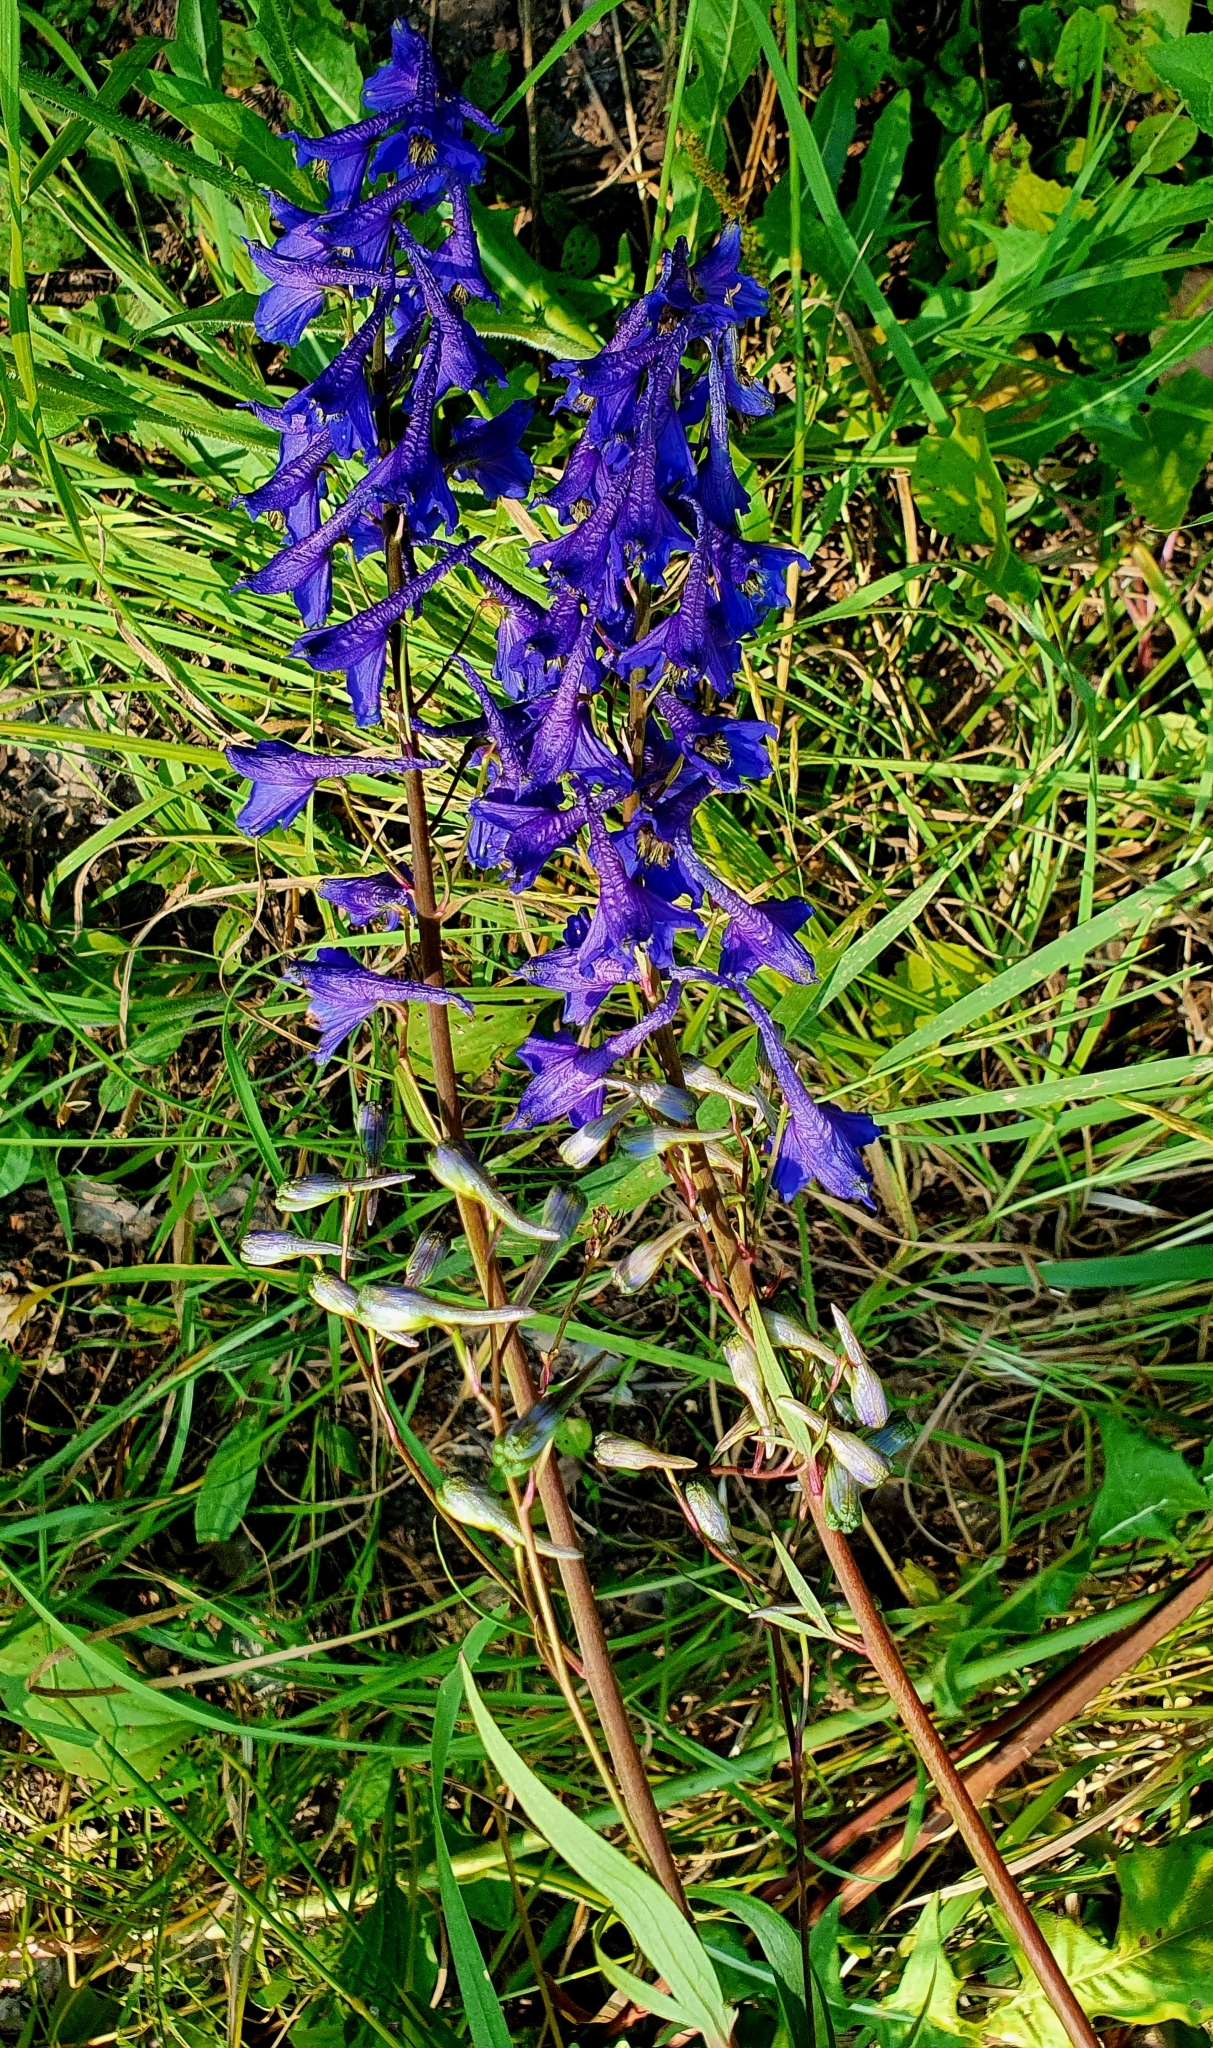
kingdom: Plantae
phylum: Tracheophyta
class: Magnoliopsida
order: Ranunculales
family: Ranunculaceae
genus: Delphinium
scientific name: Delphinium elatum
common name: Candle larkspur
